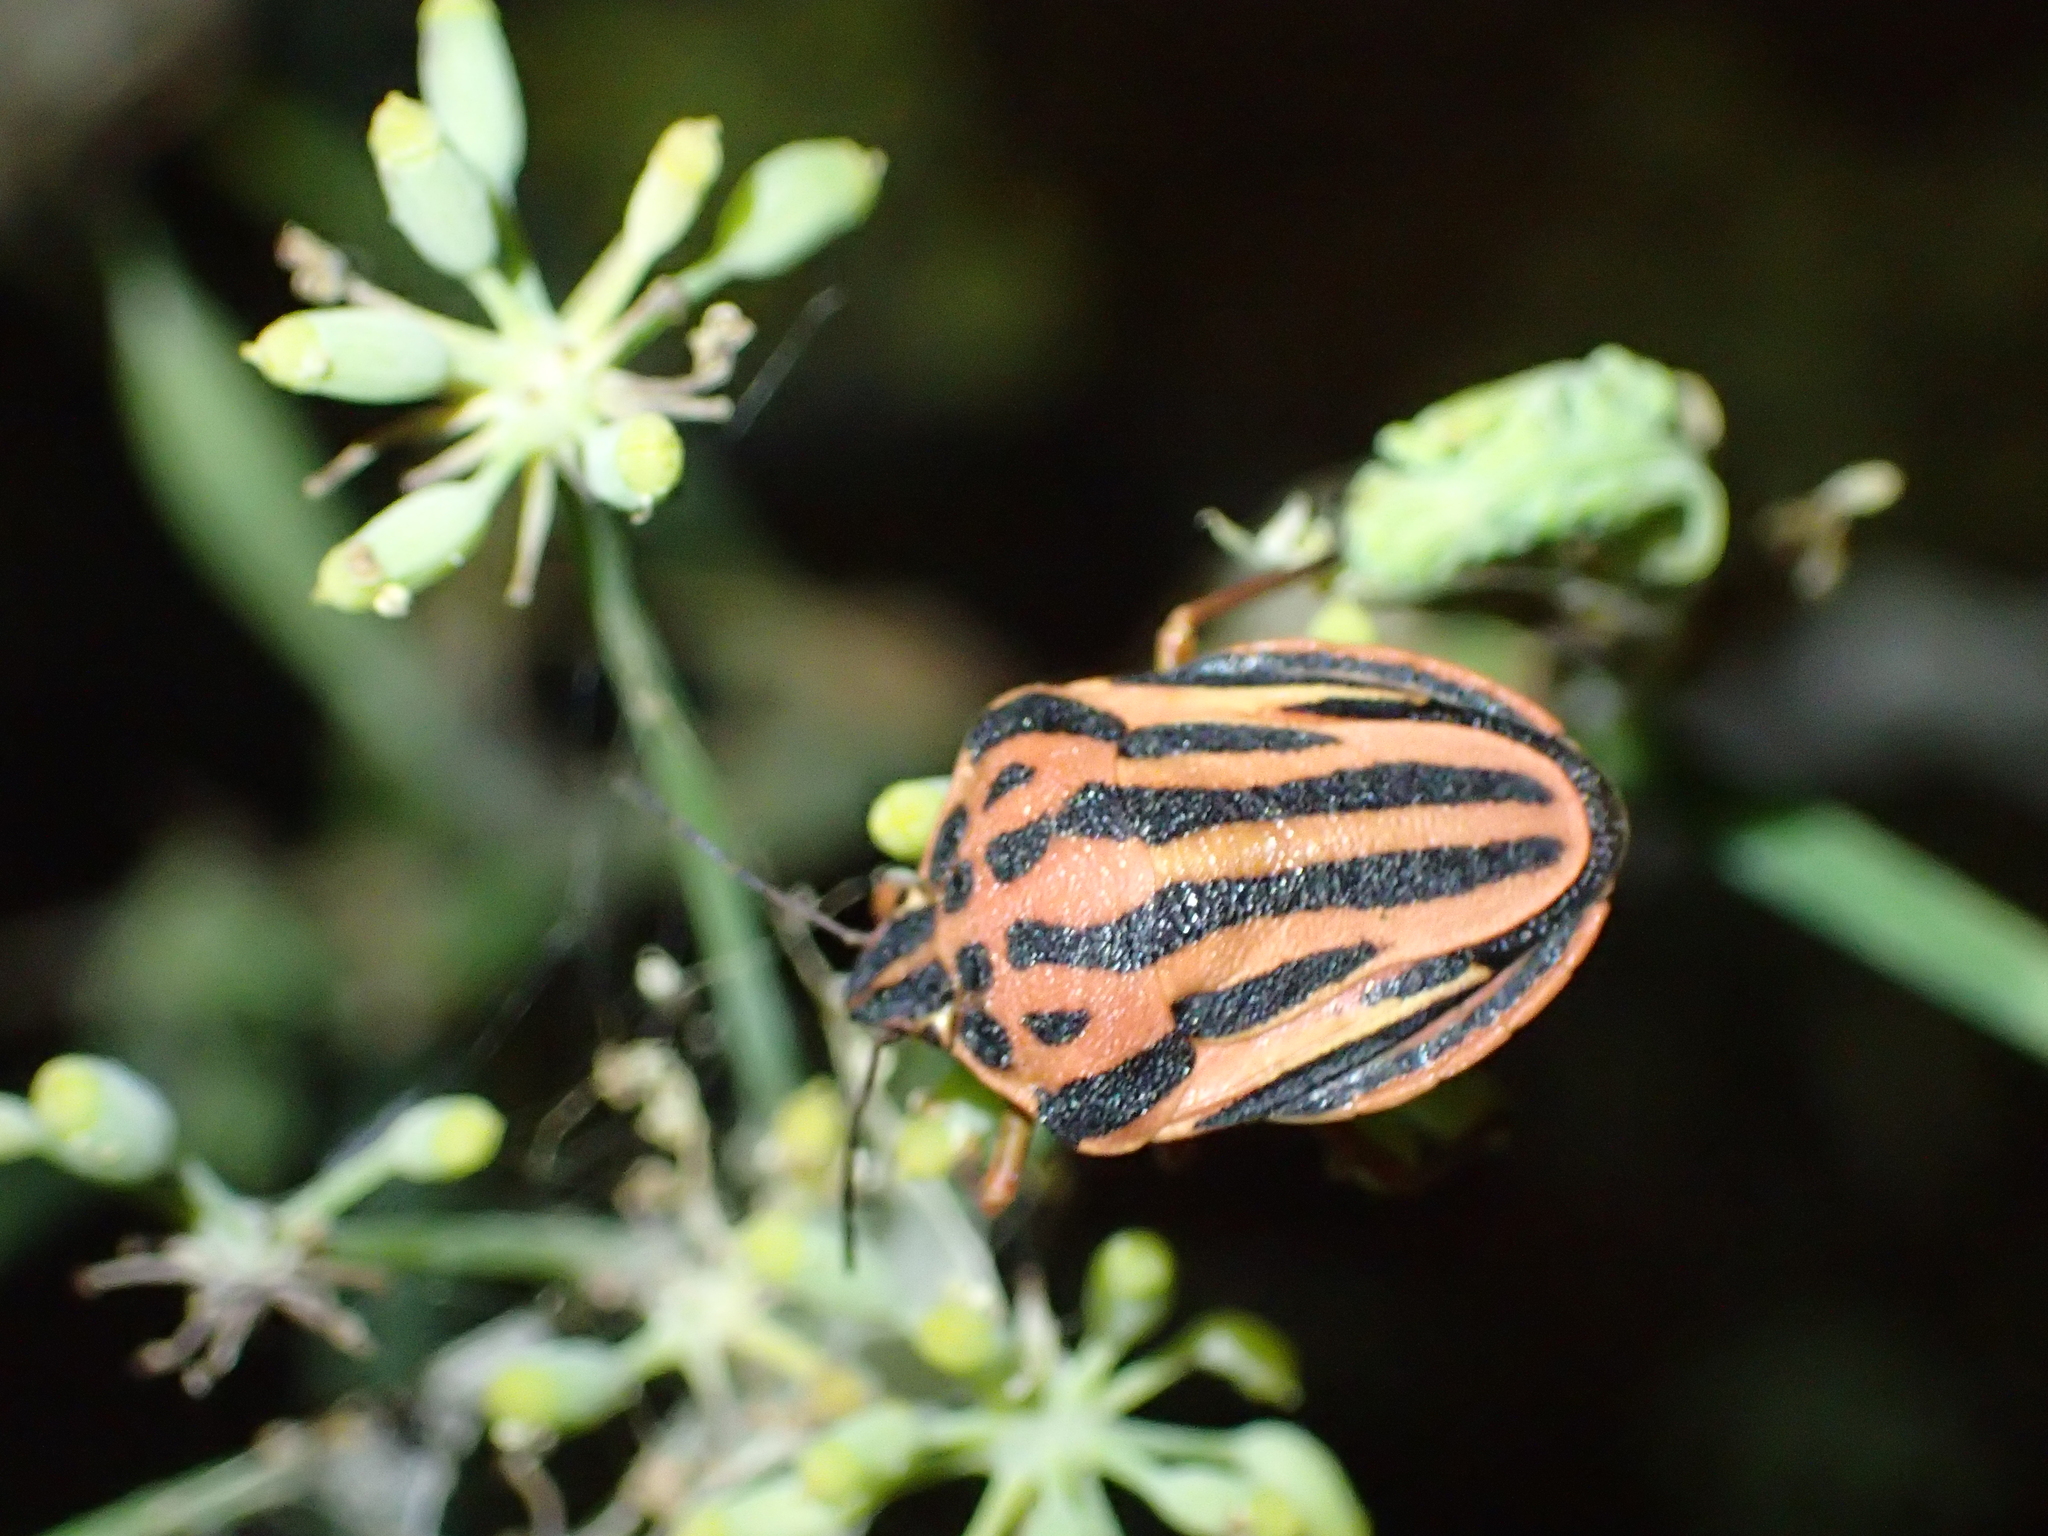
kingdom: Animalia
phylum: Arthropoda
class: Insecta
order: Hemiptera
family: Pentatomidae
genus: Graphosoma
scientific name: Graphosoma semipunctatum
